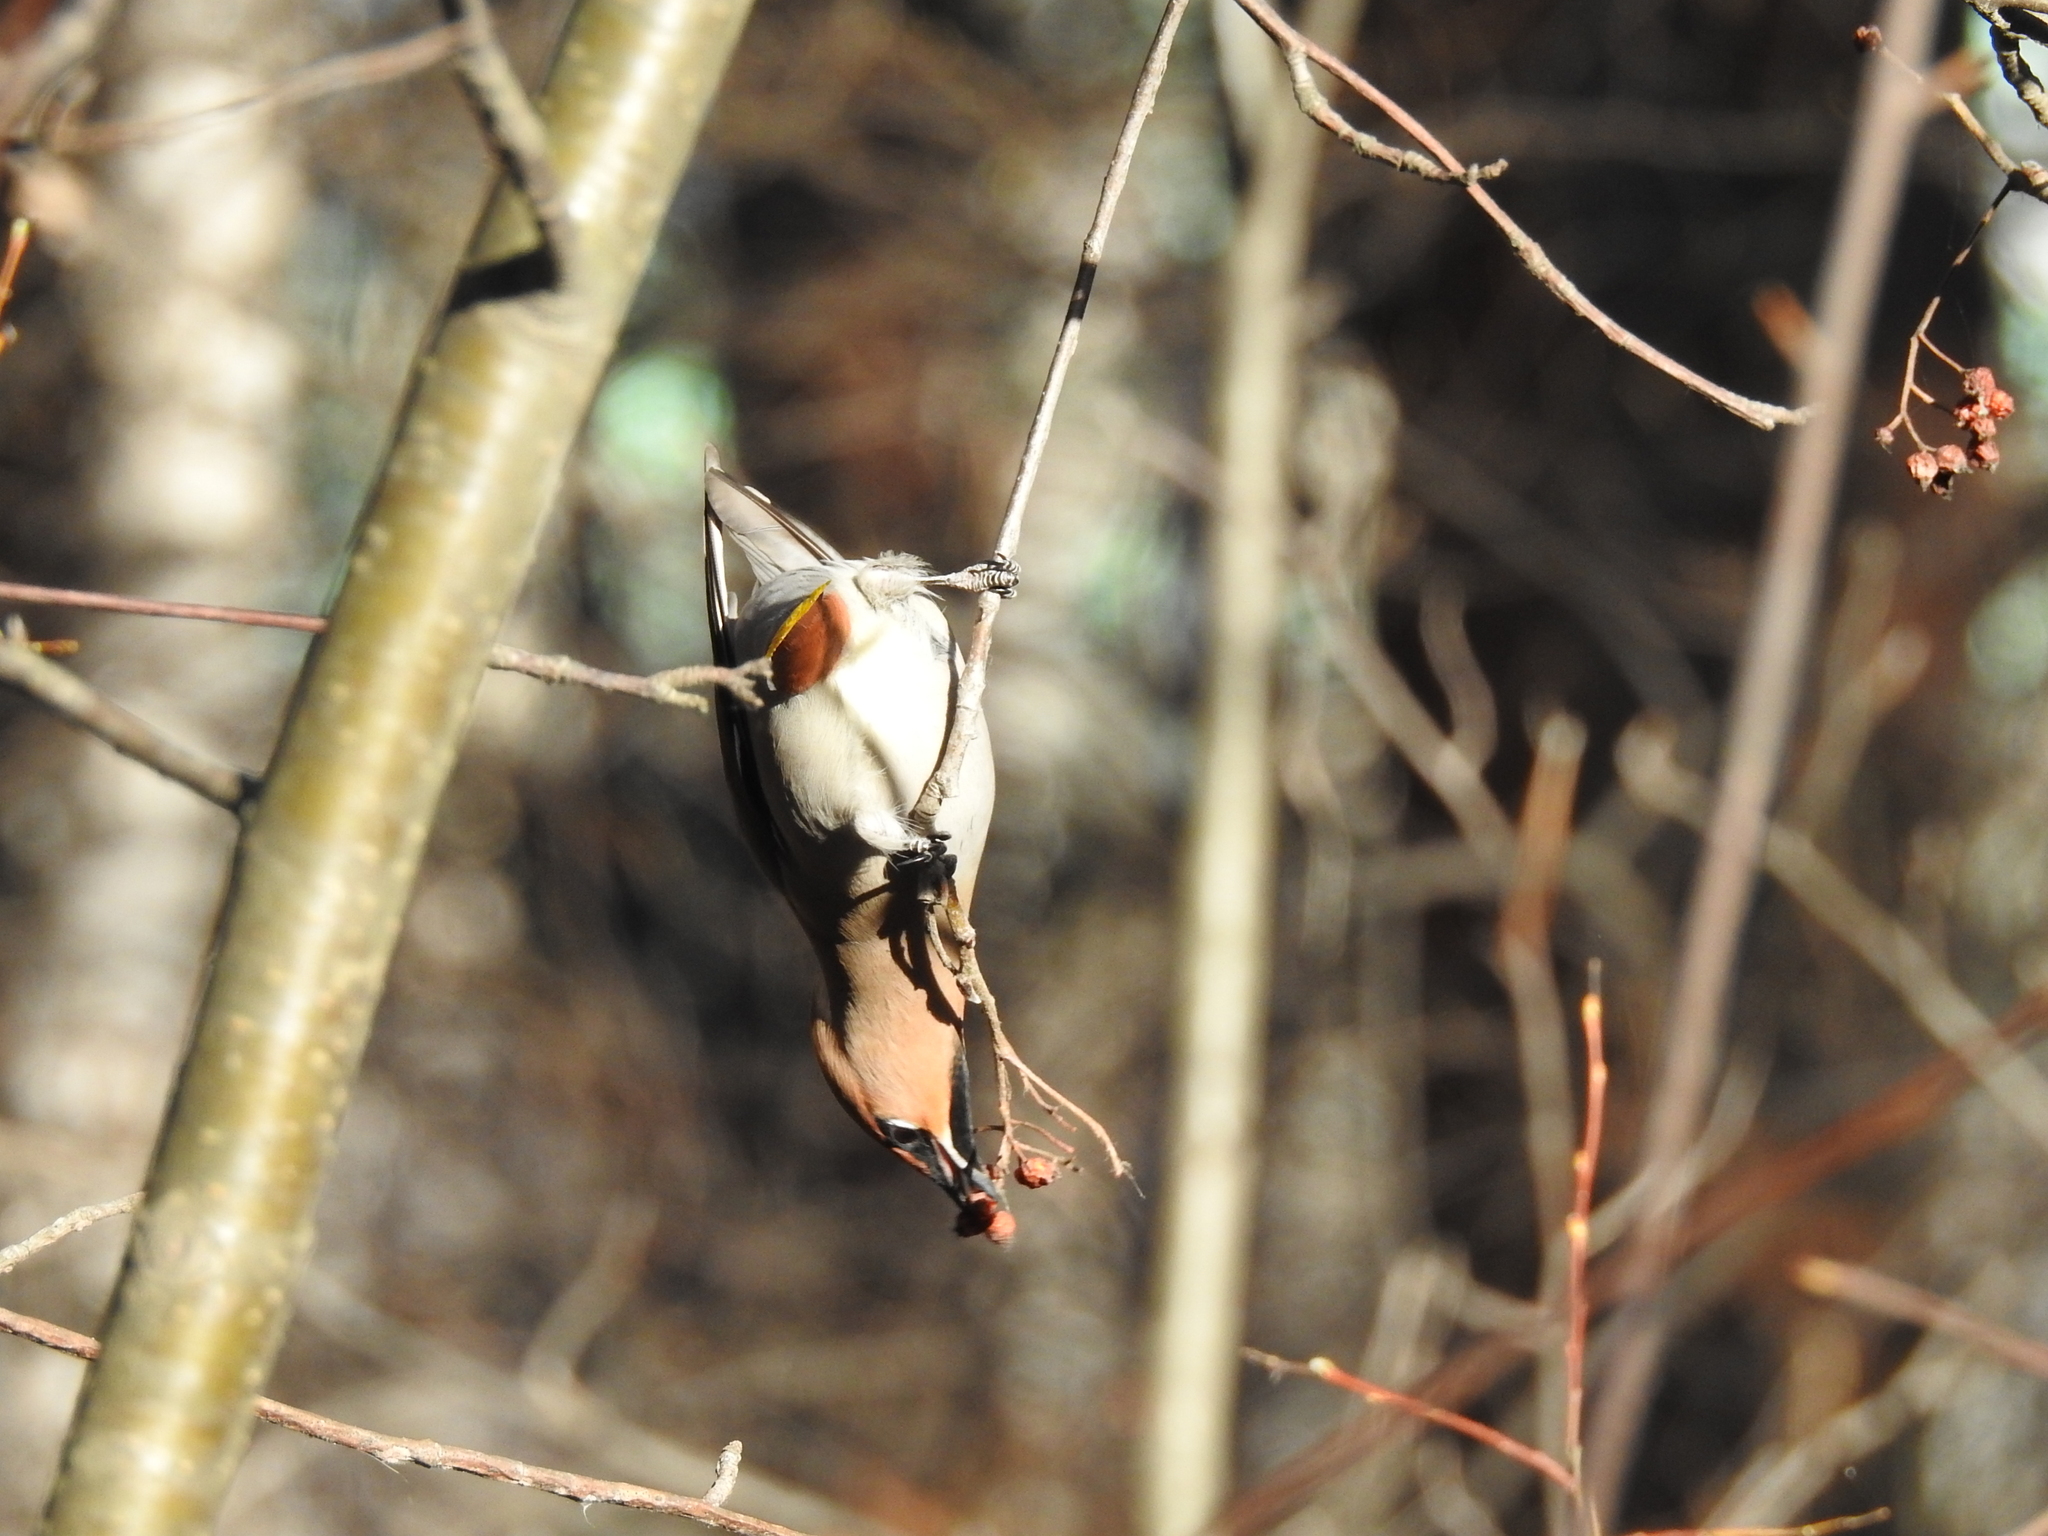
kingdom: Animalia
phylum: Chordata
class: Aves
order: Passeriformes
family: Bombycillidae
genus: Bombycilla
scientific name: Bombycilla garrulus
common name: Bohemian waxwing
